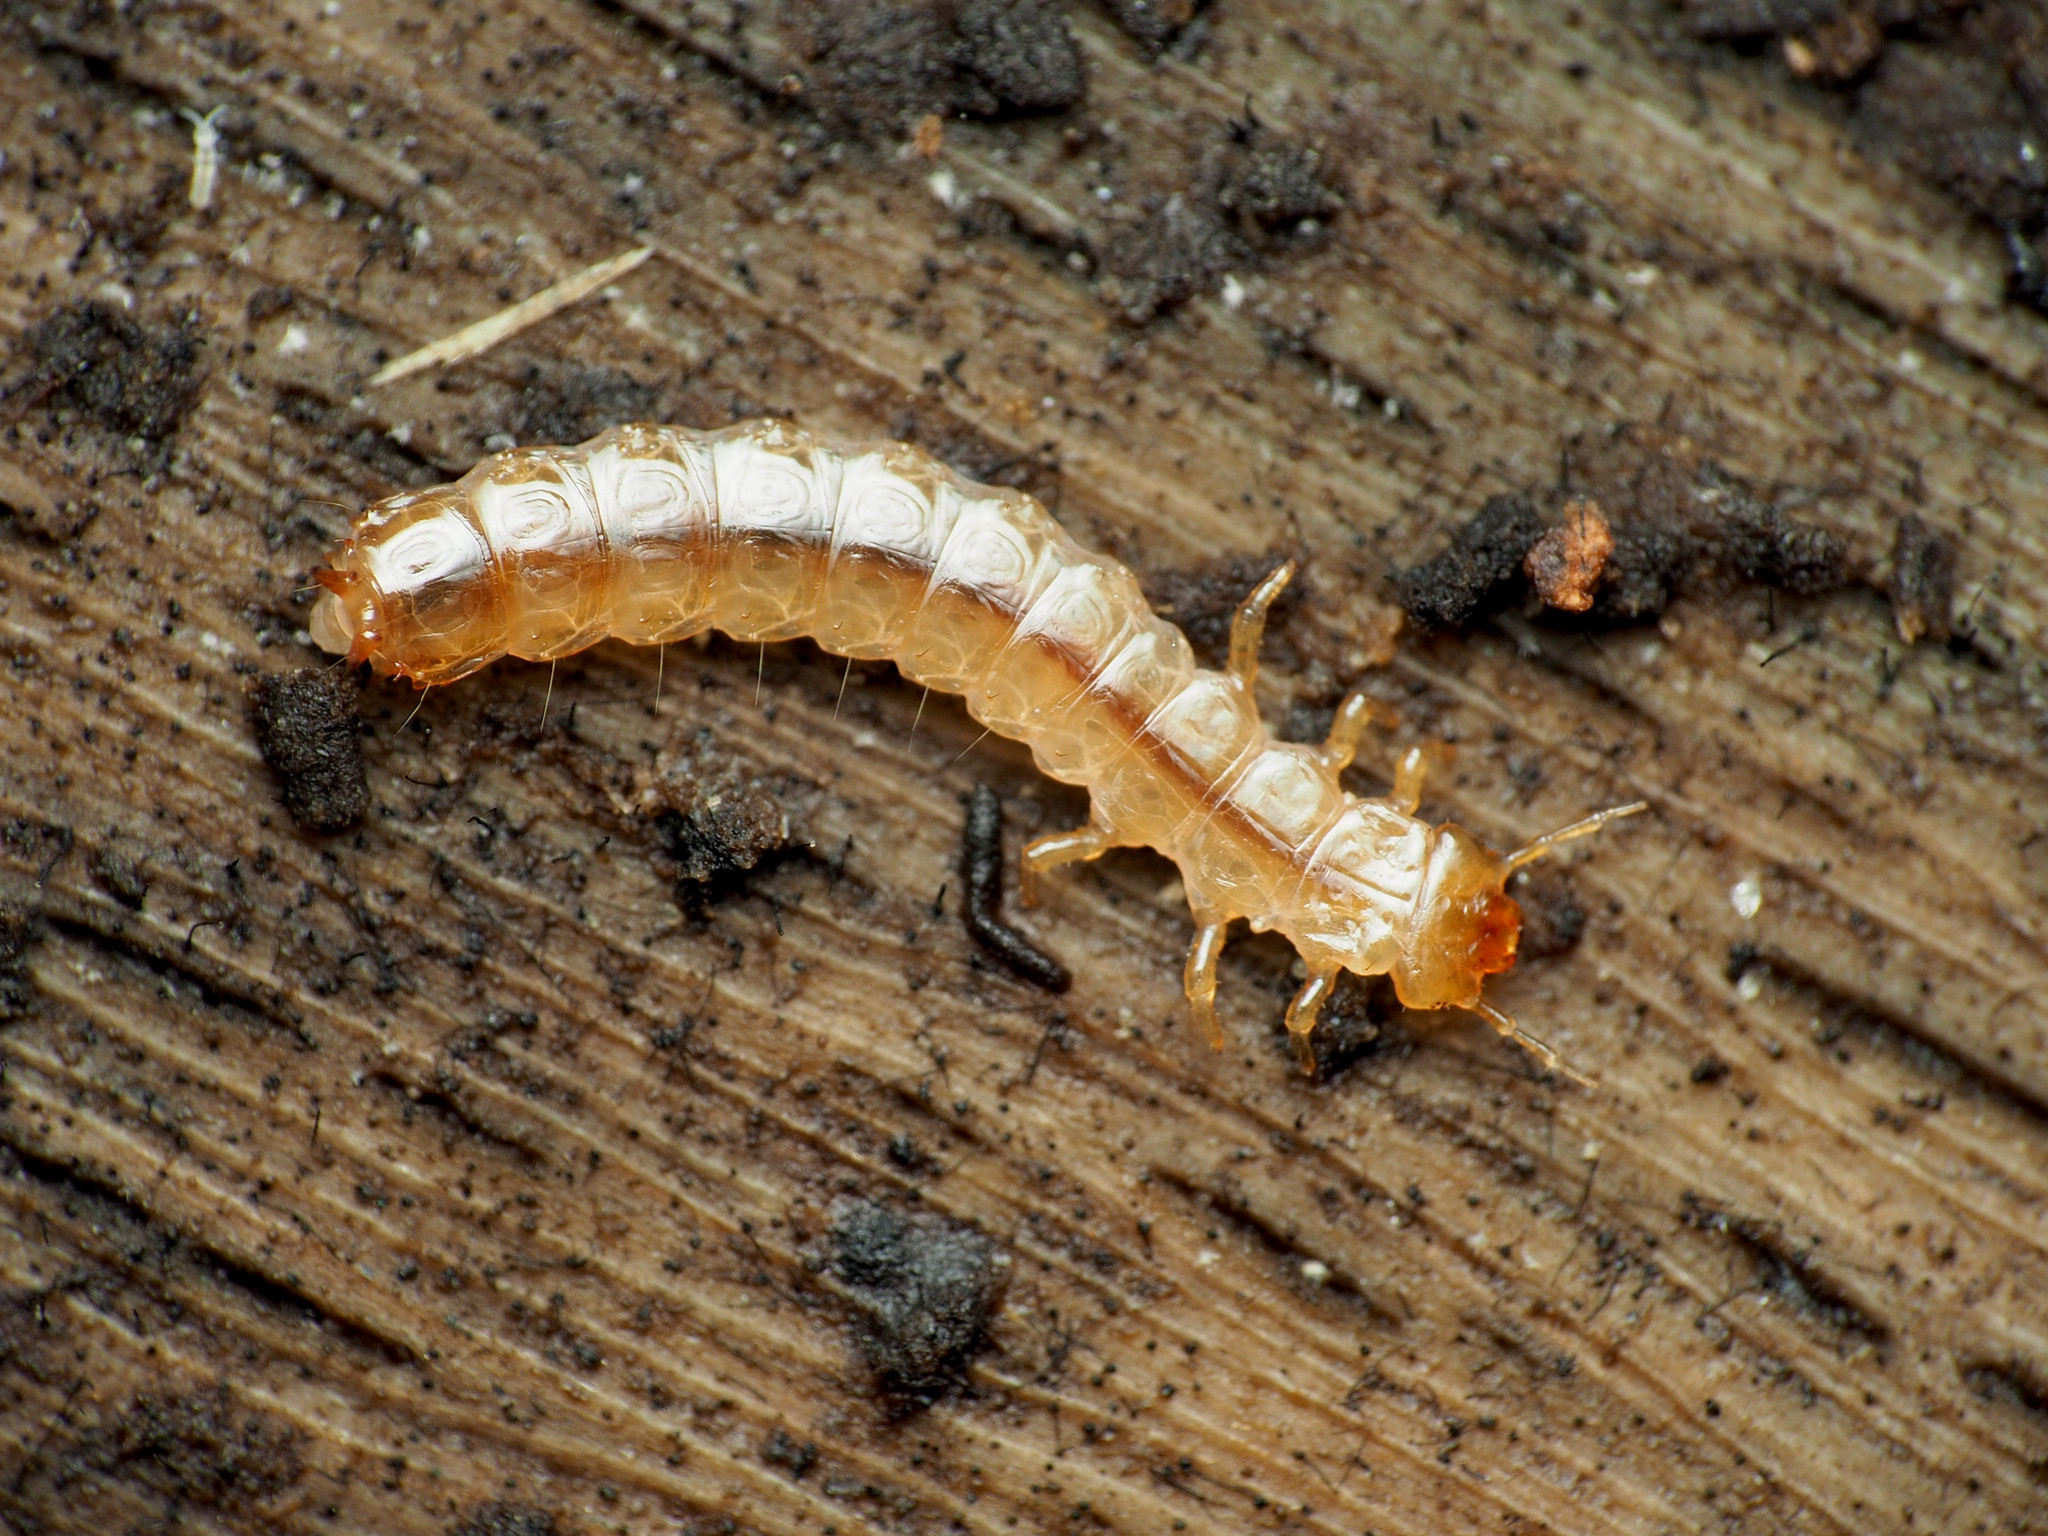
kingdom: Animalia
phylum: Arthropoda
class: Insecta
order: Coleoptera
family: Cucujidae
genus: Cucujus
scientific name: Cucujus clavipes
